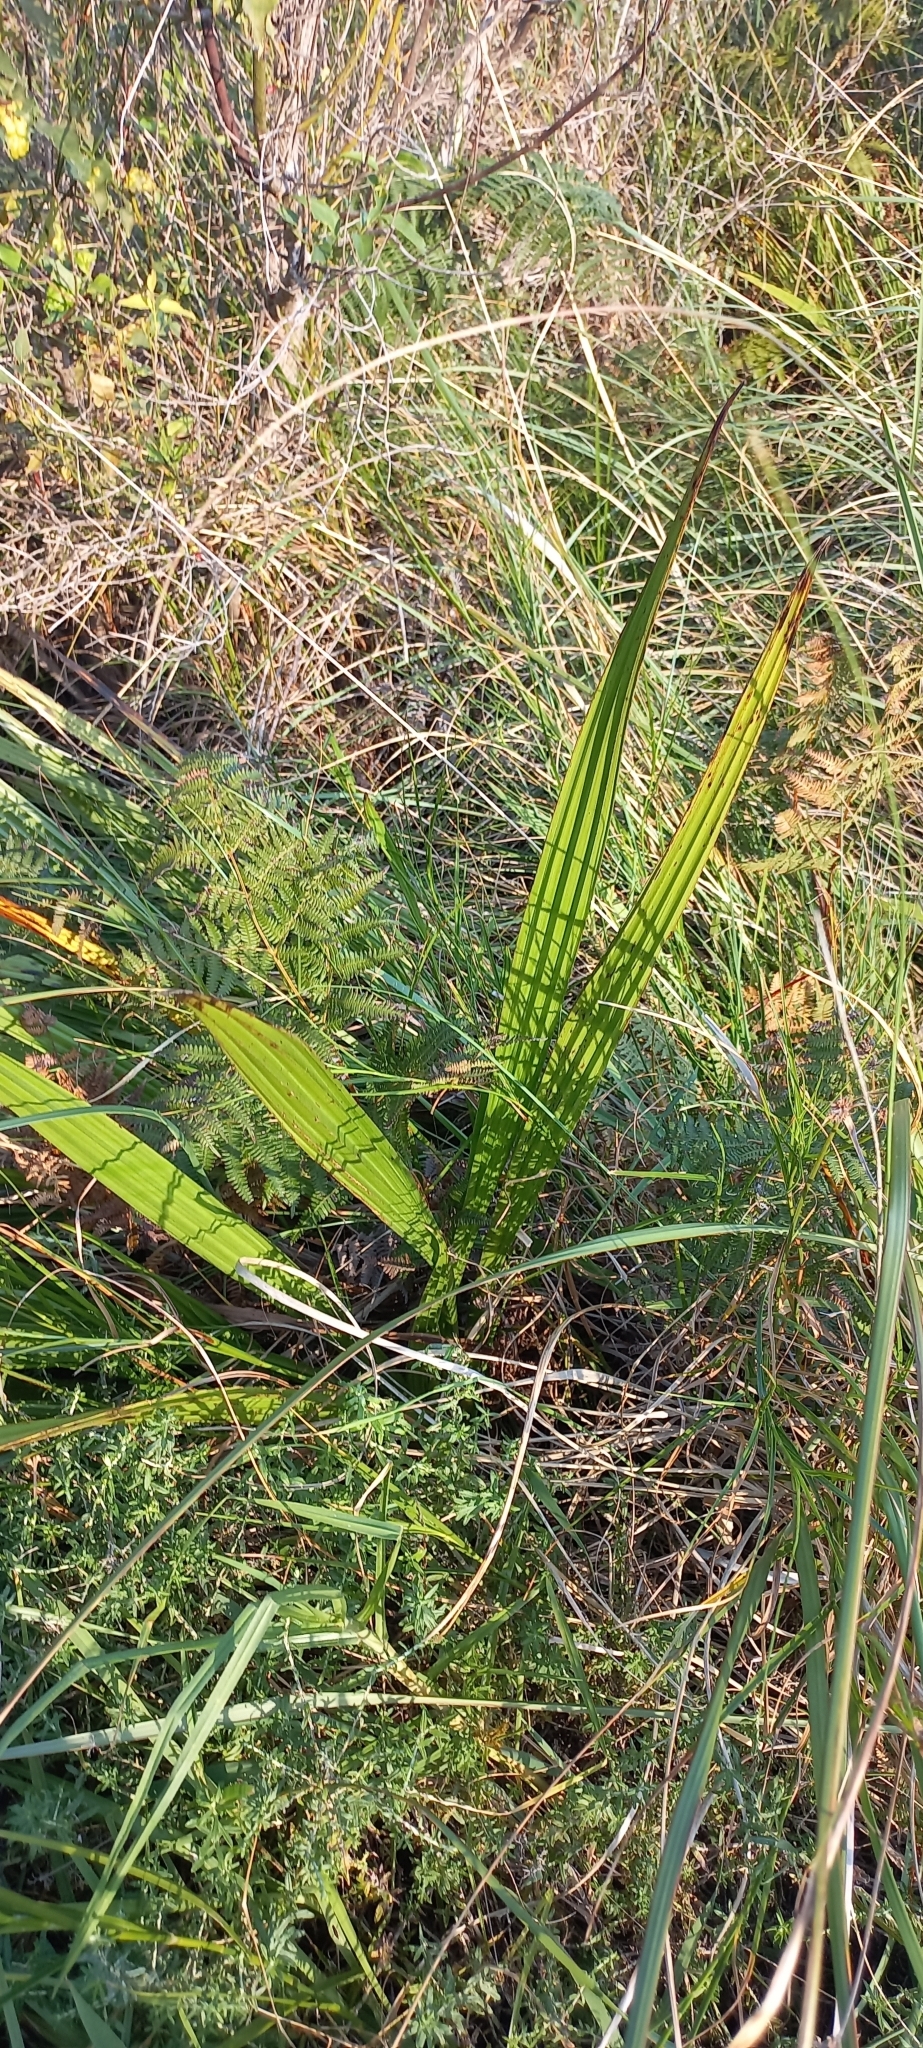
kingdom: Plantae
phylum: Tracheophyta
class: Liliopsida
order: Commelinales
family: Haemodoraceae
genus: Wachendorfia
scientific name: Wachendorfia thyrsiflora
